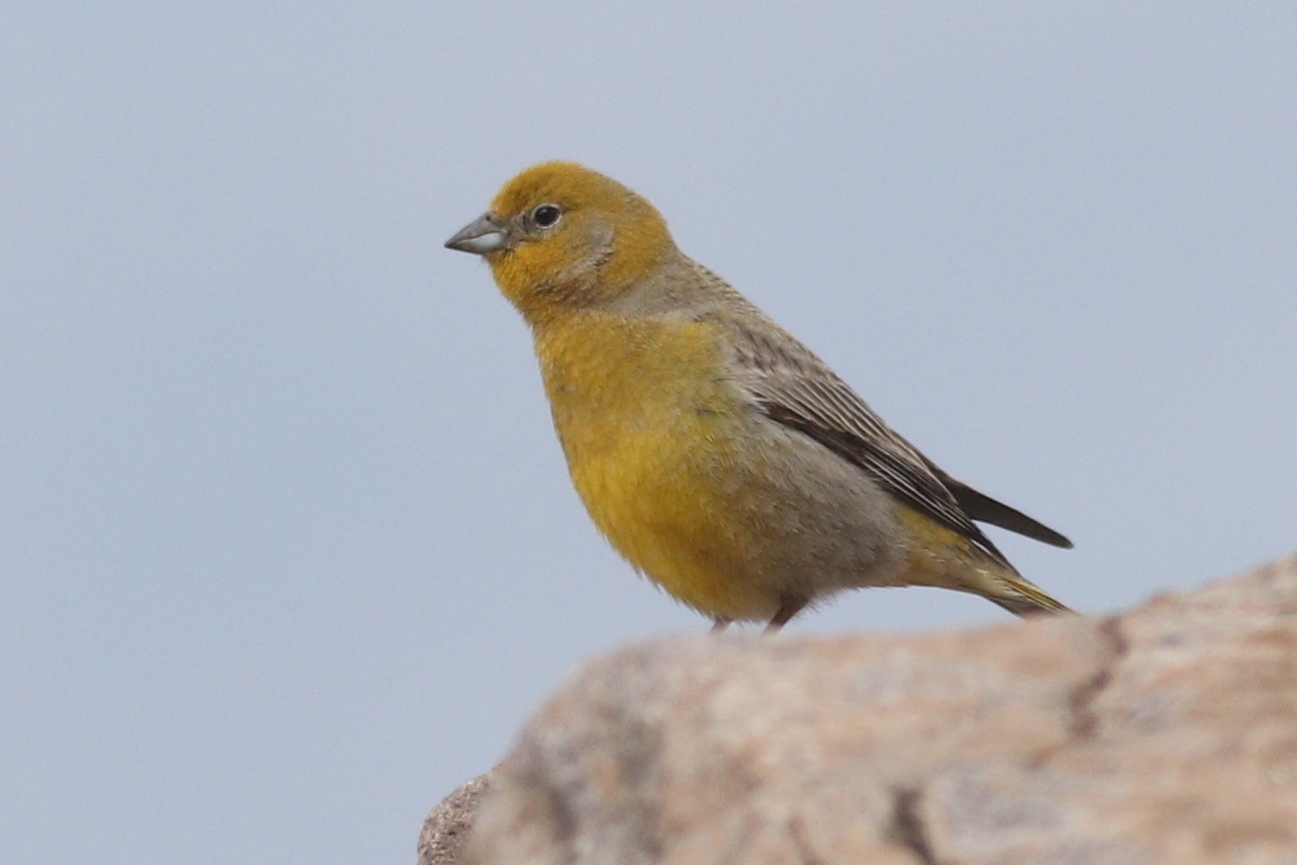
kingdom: Animalia
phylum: Chordata
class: Aves
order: Passeriformes
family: Thraupidae
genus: Sicalis
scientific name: Sicalis auriventris
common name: Greater yellow finch
